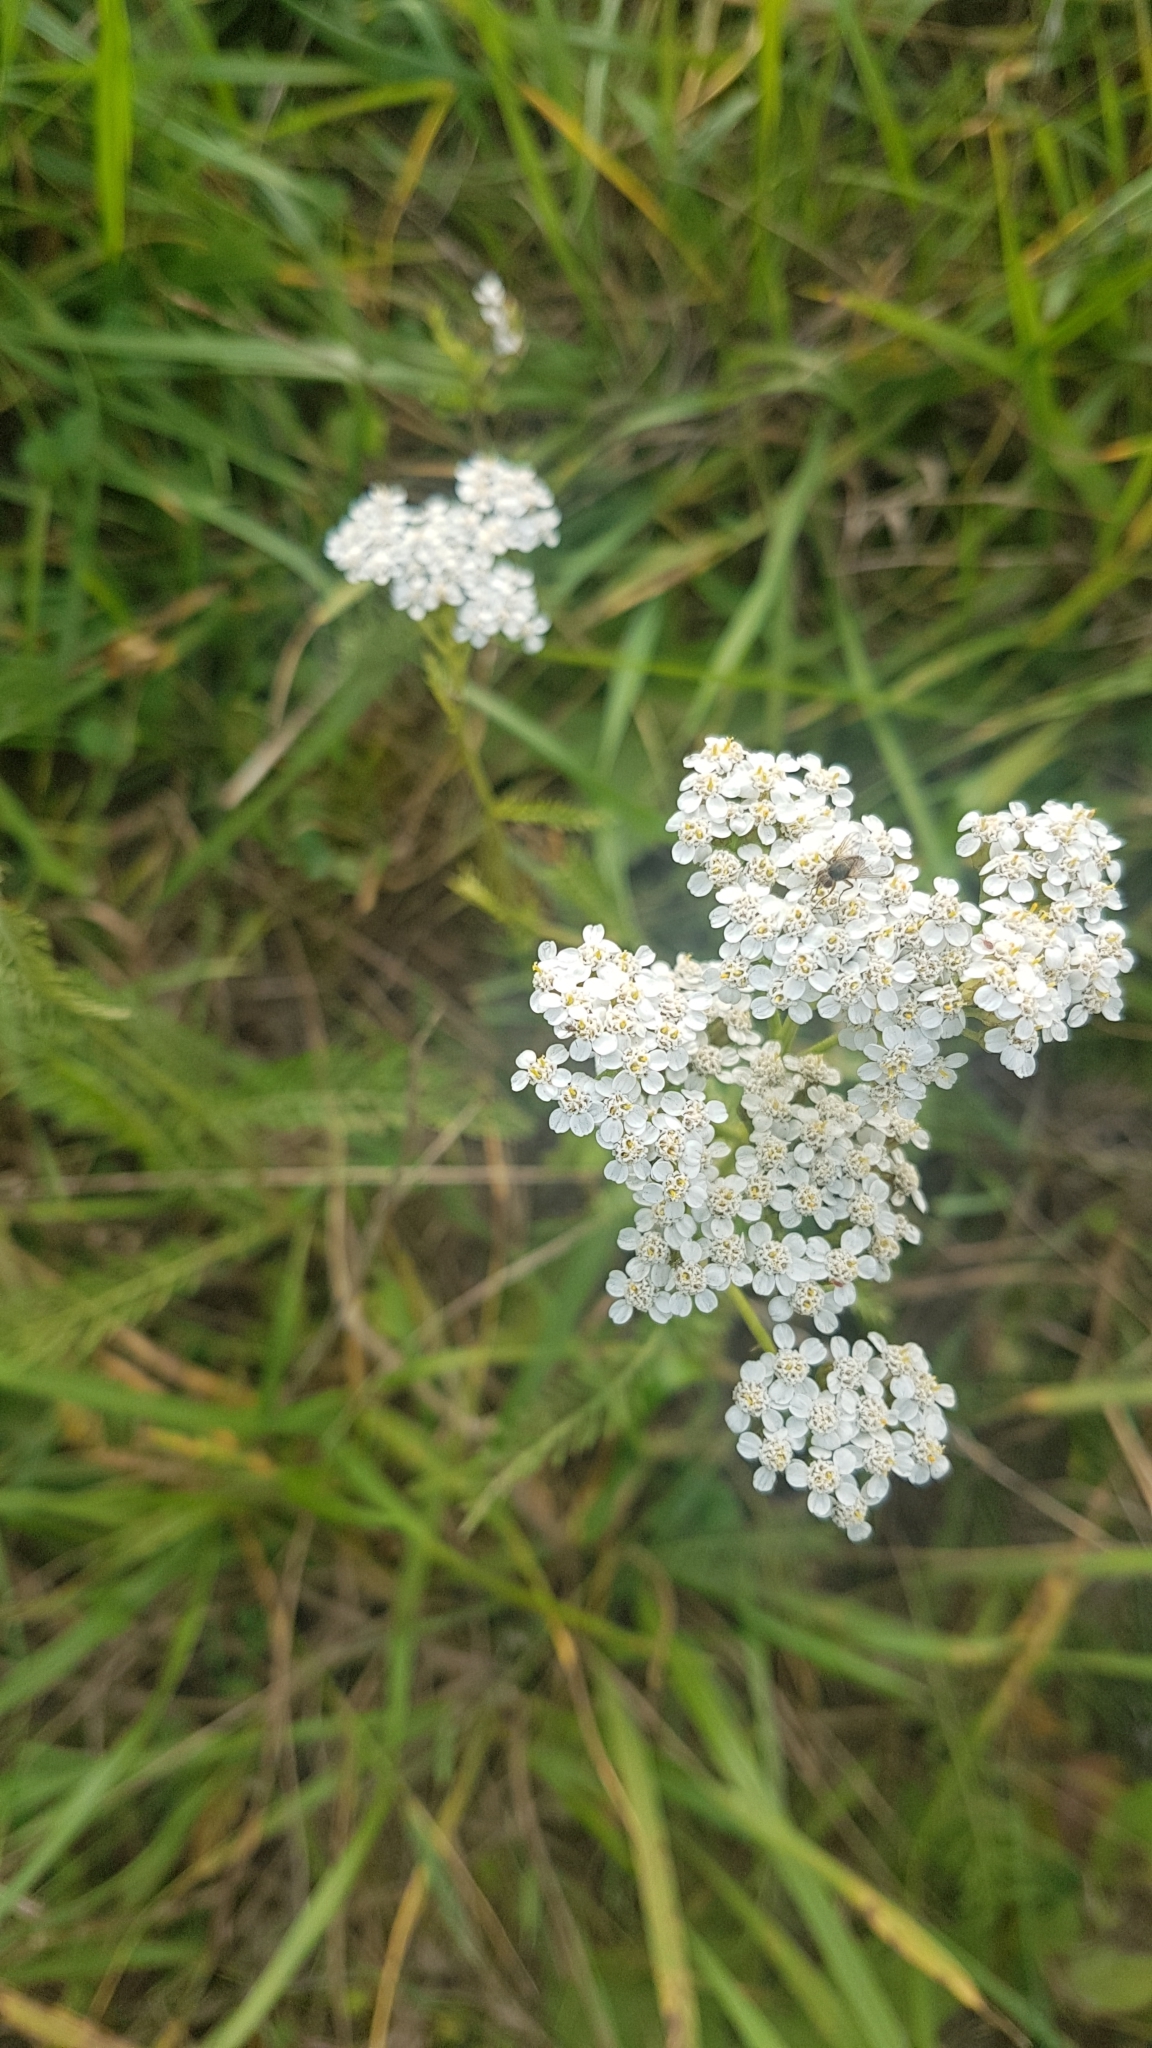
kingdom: Plantae
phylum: Tracheophyta
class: Magnoliopsida
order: Asterales
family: Asteraceae
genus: Achillea
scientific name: Achillea millefolium
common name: Yarrow
